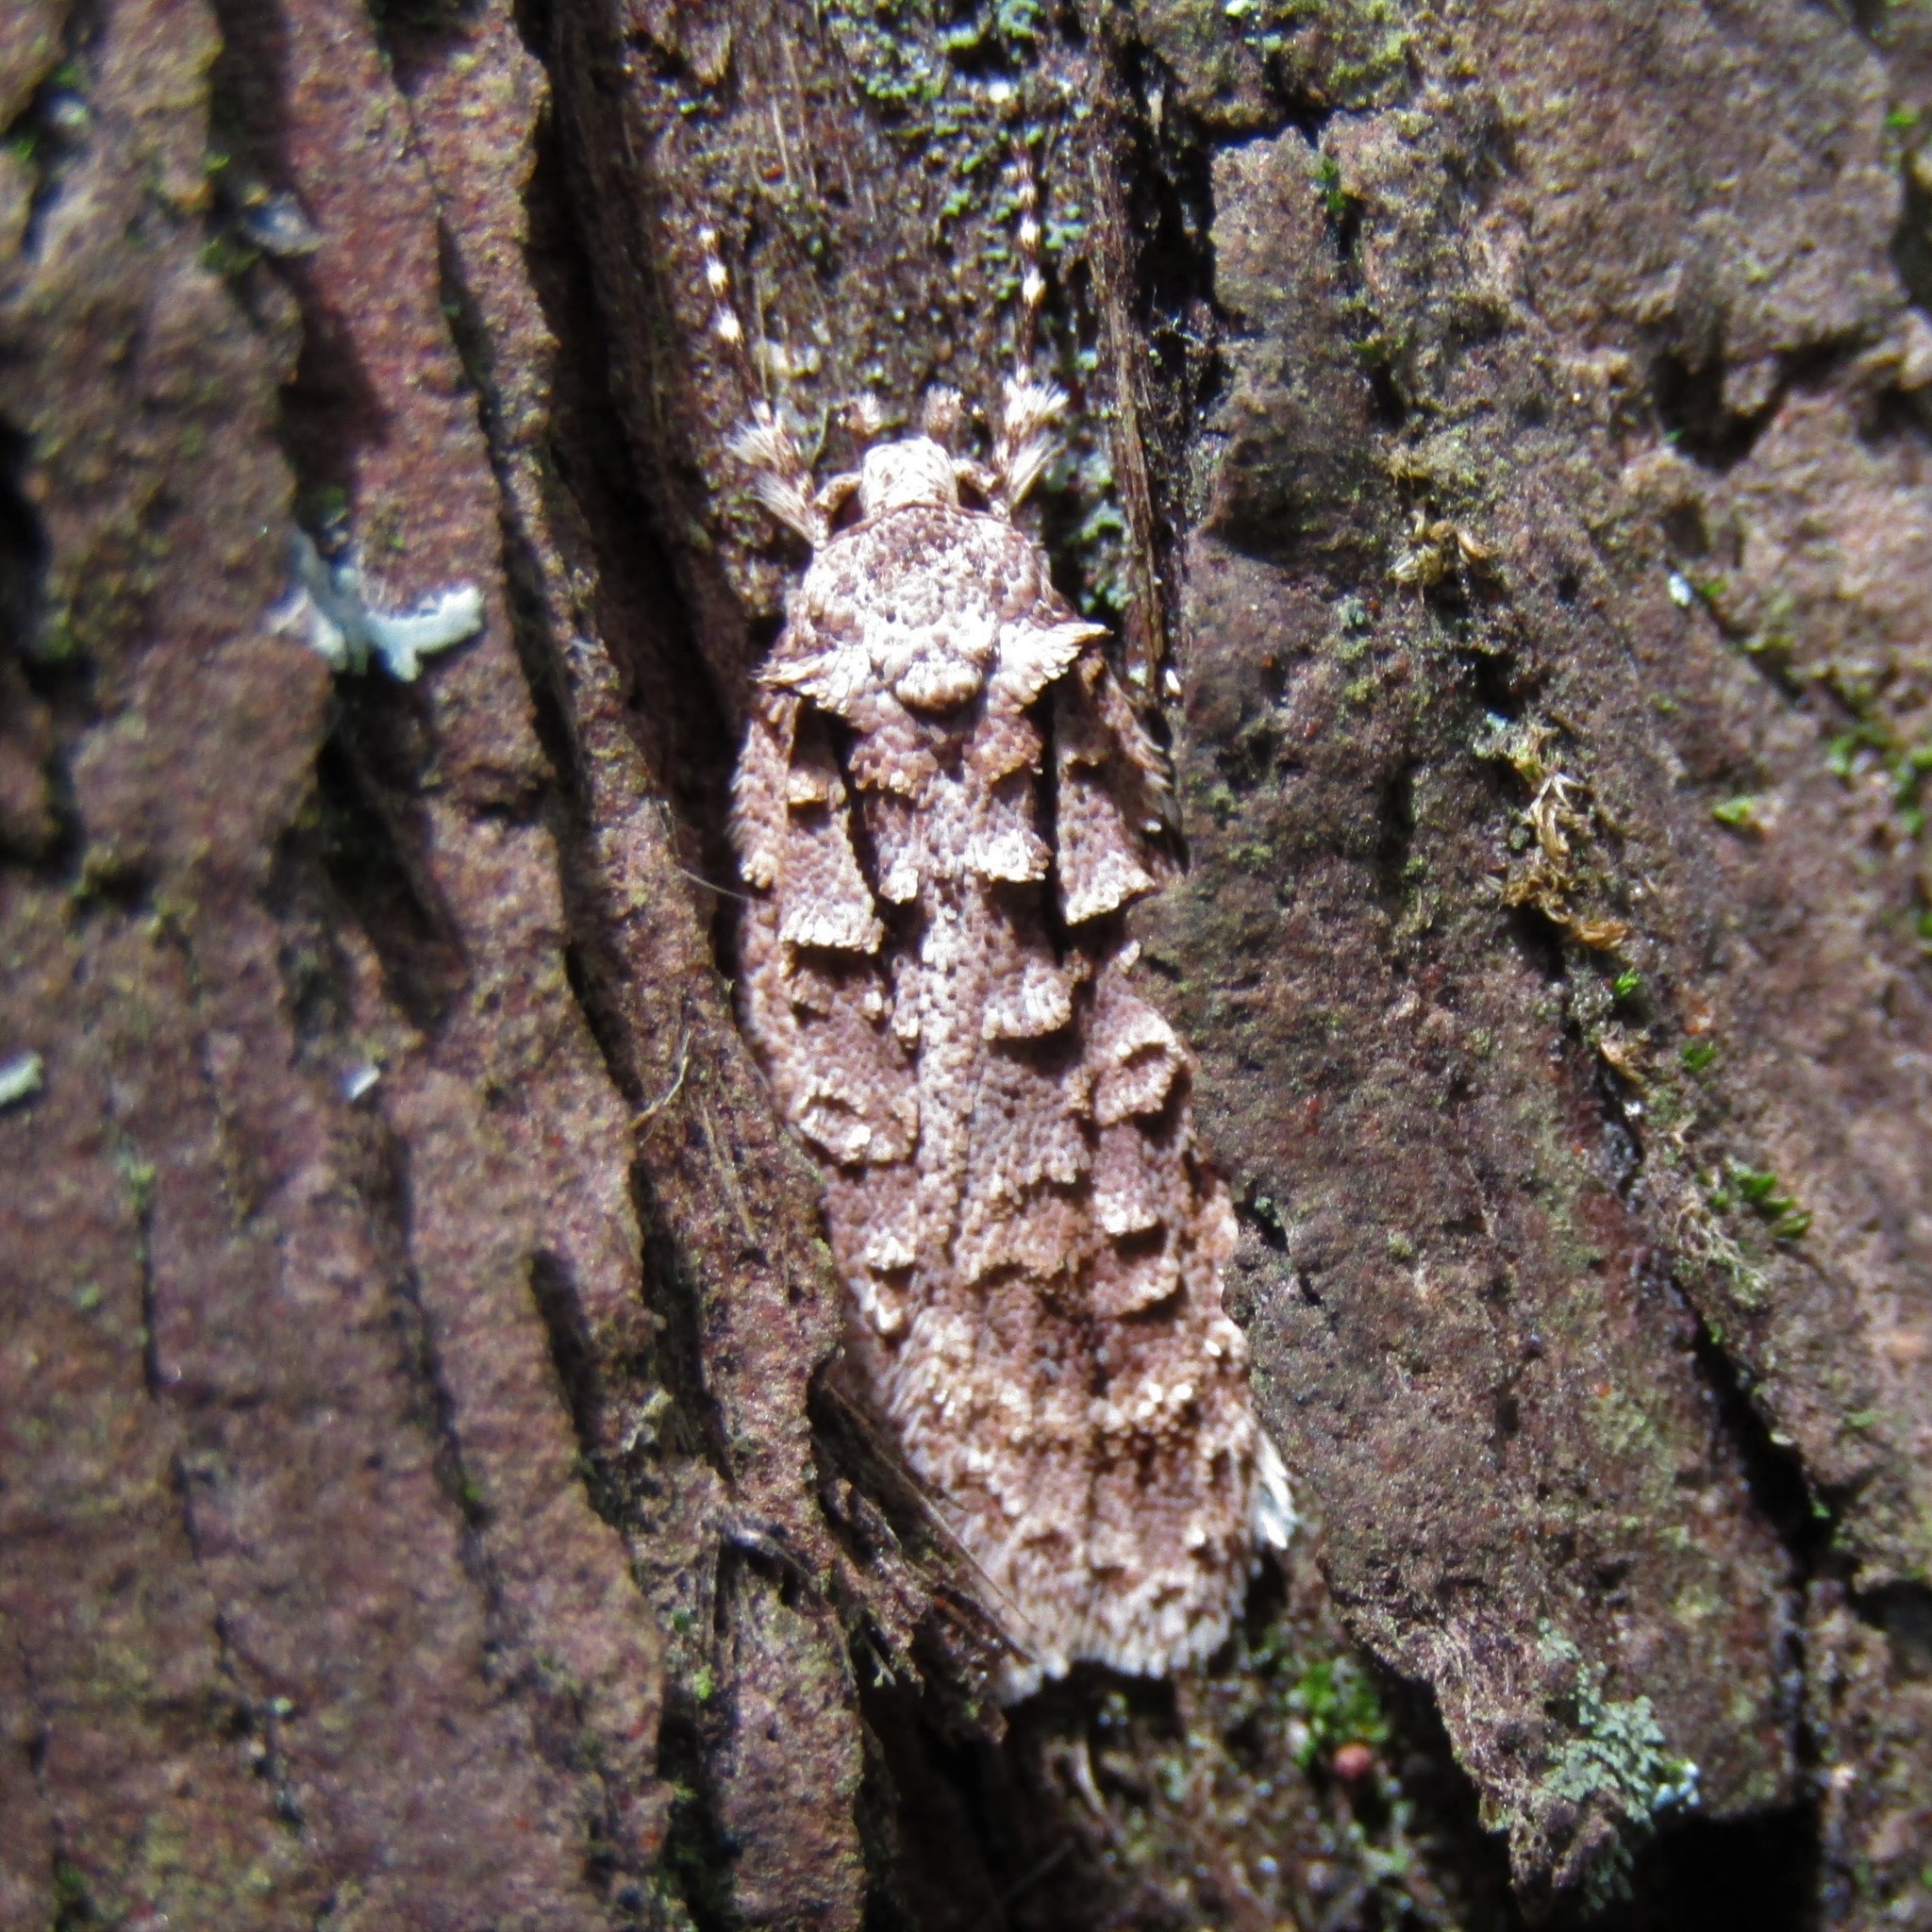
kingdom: Animalia
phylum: Arthropoda
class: Insecta
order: Lepidoptera
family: Oecophoridae
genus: Izatha
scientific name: Izatha attactella
